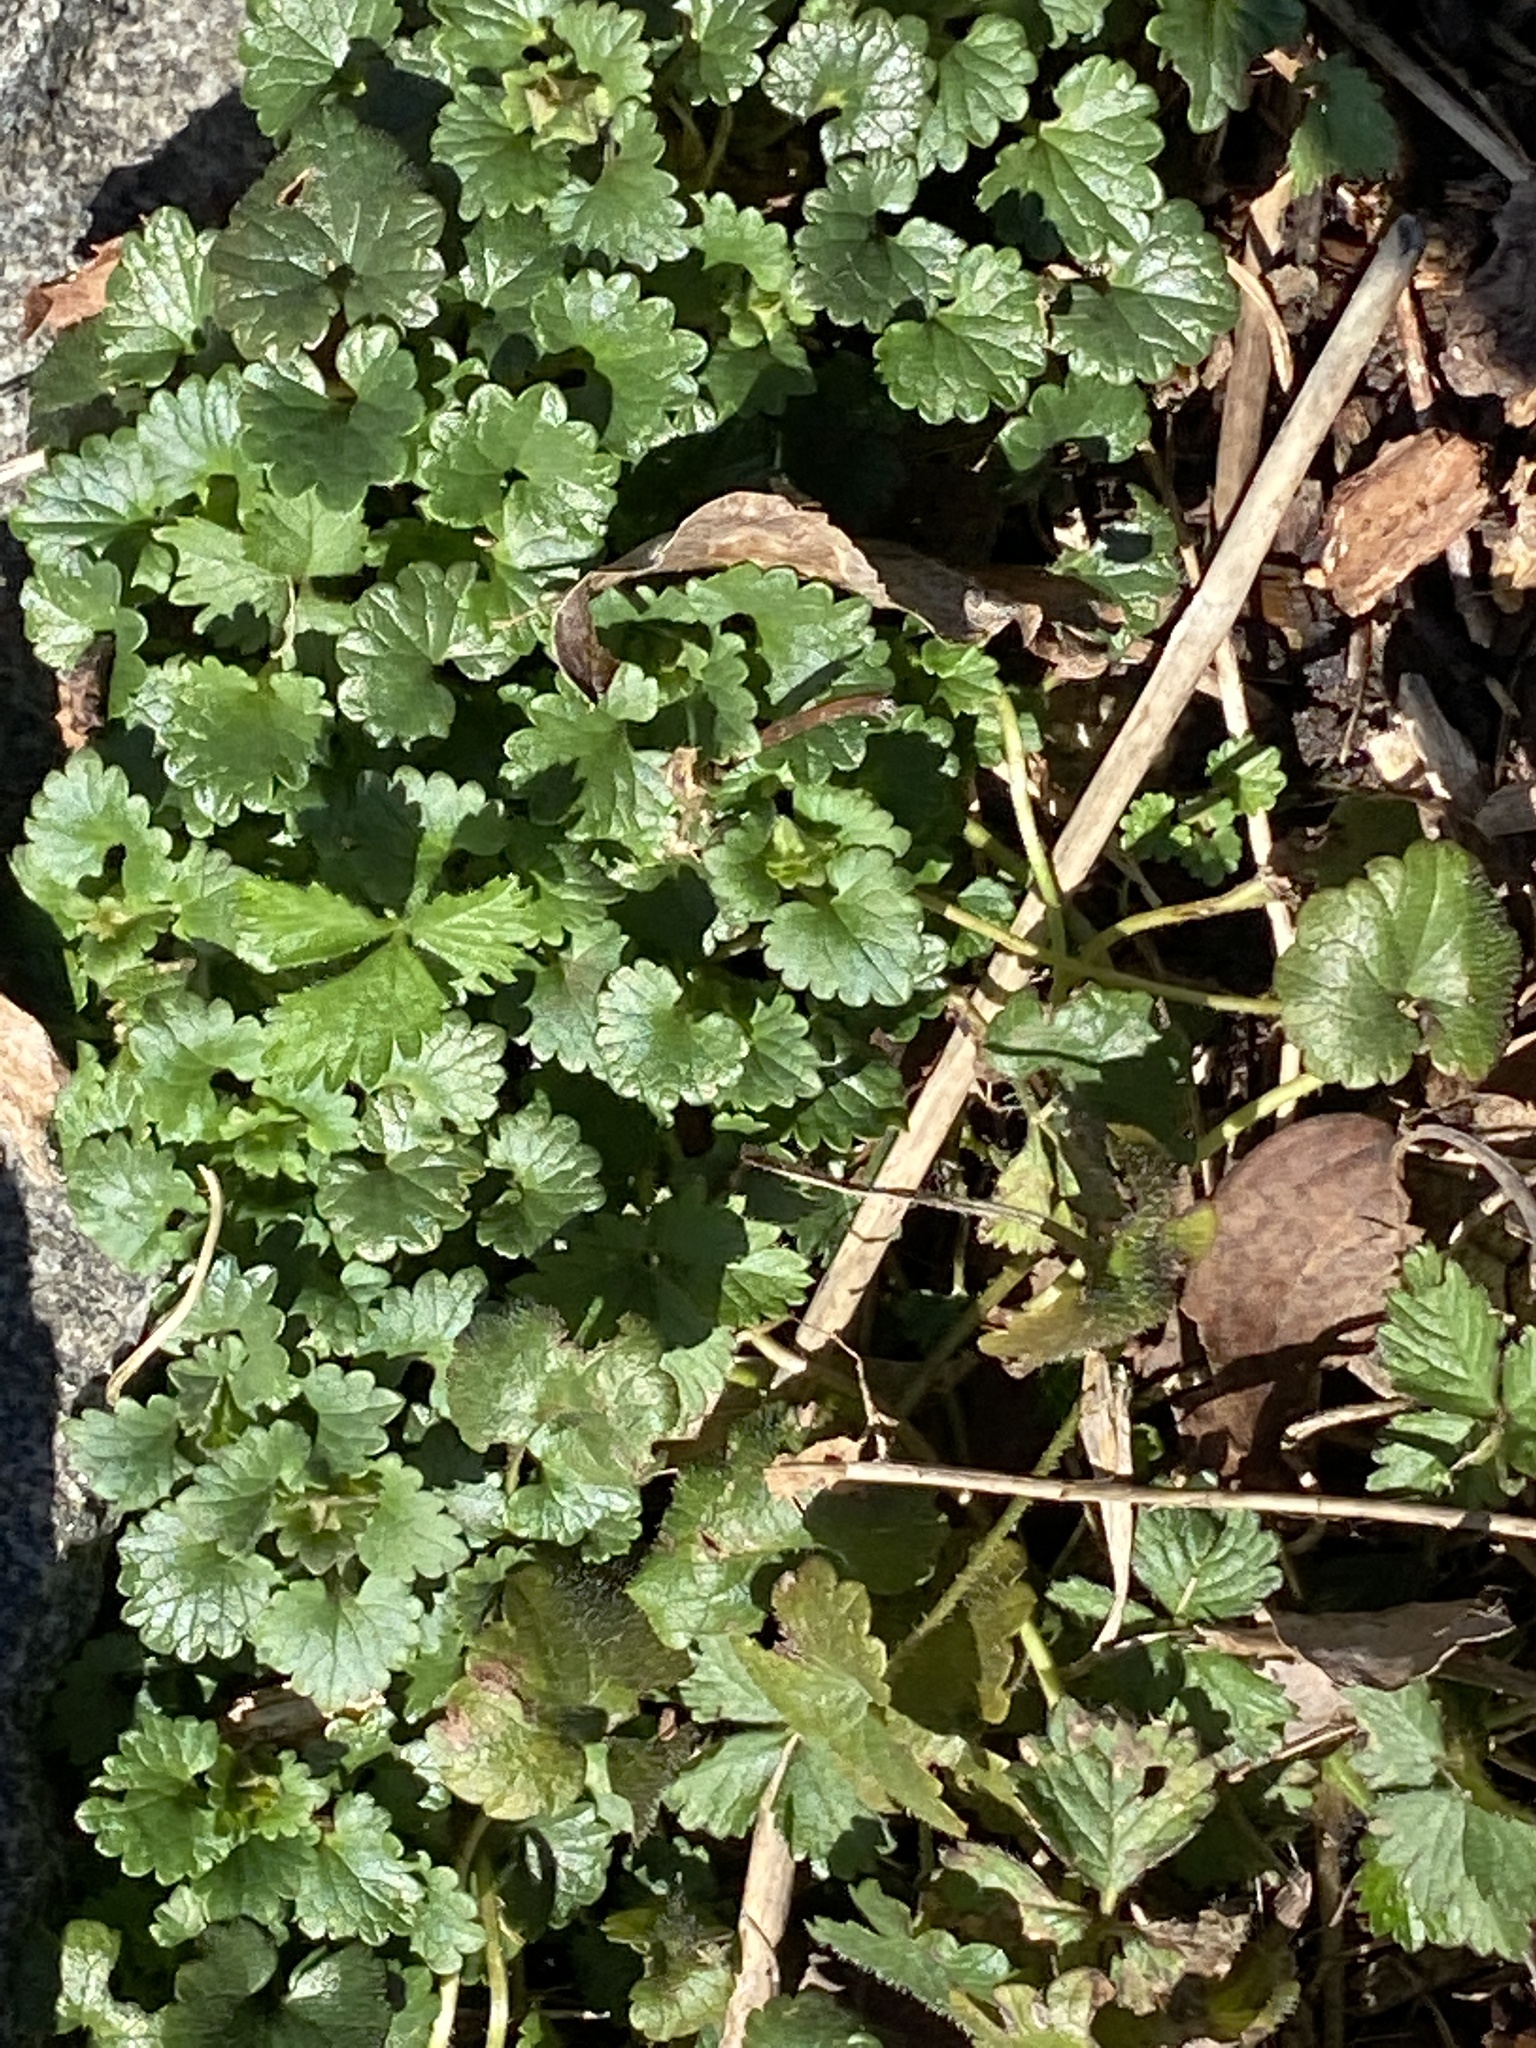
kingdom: Plantae
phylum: Tracheophyta
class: Magnoliopsida
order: Lamiales
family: Lamiaceae
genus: Glechoma
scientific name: Glechoma hederacea
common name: Ground ivy
